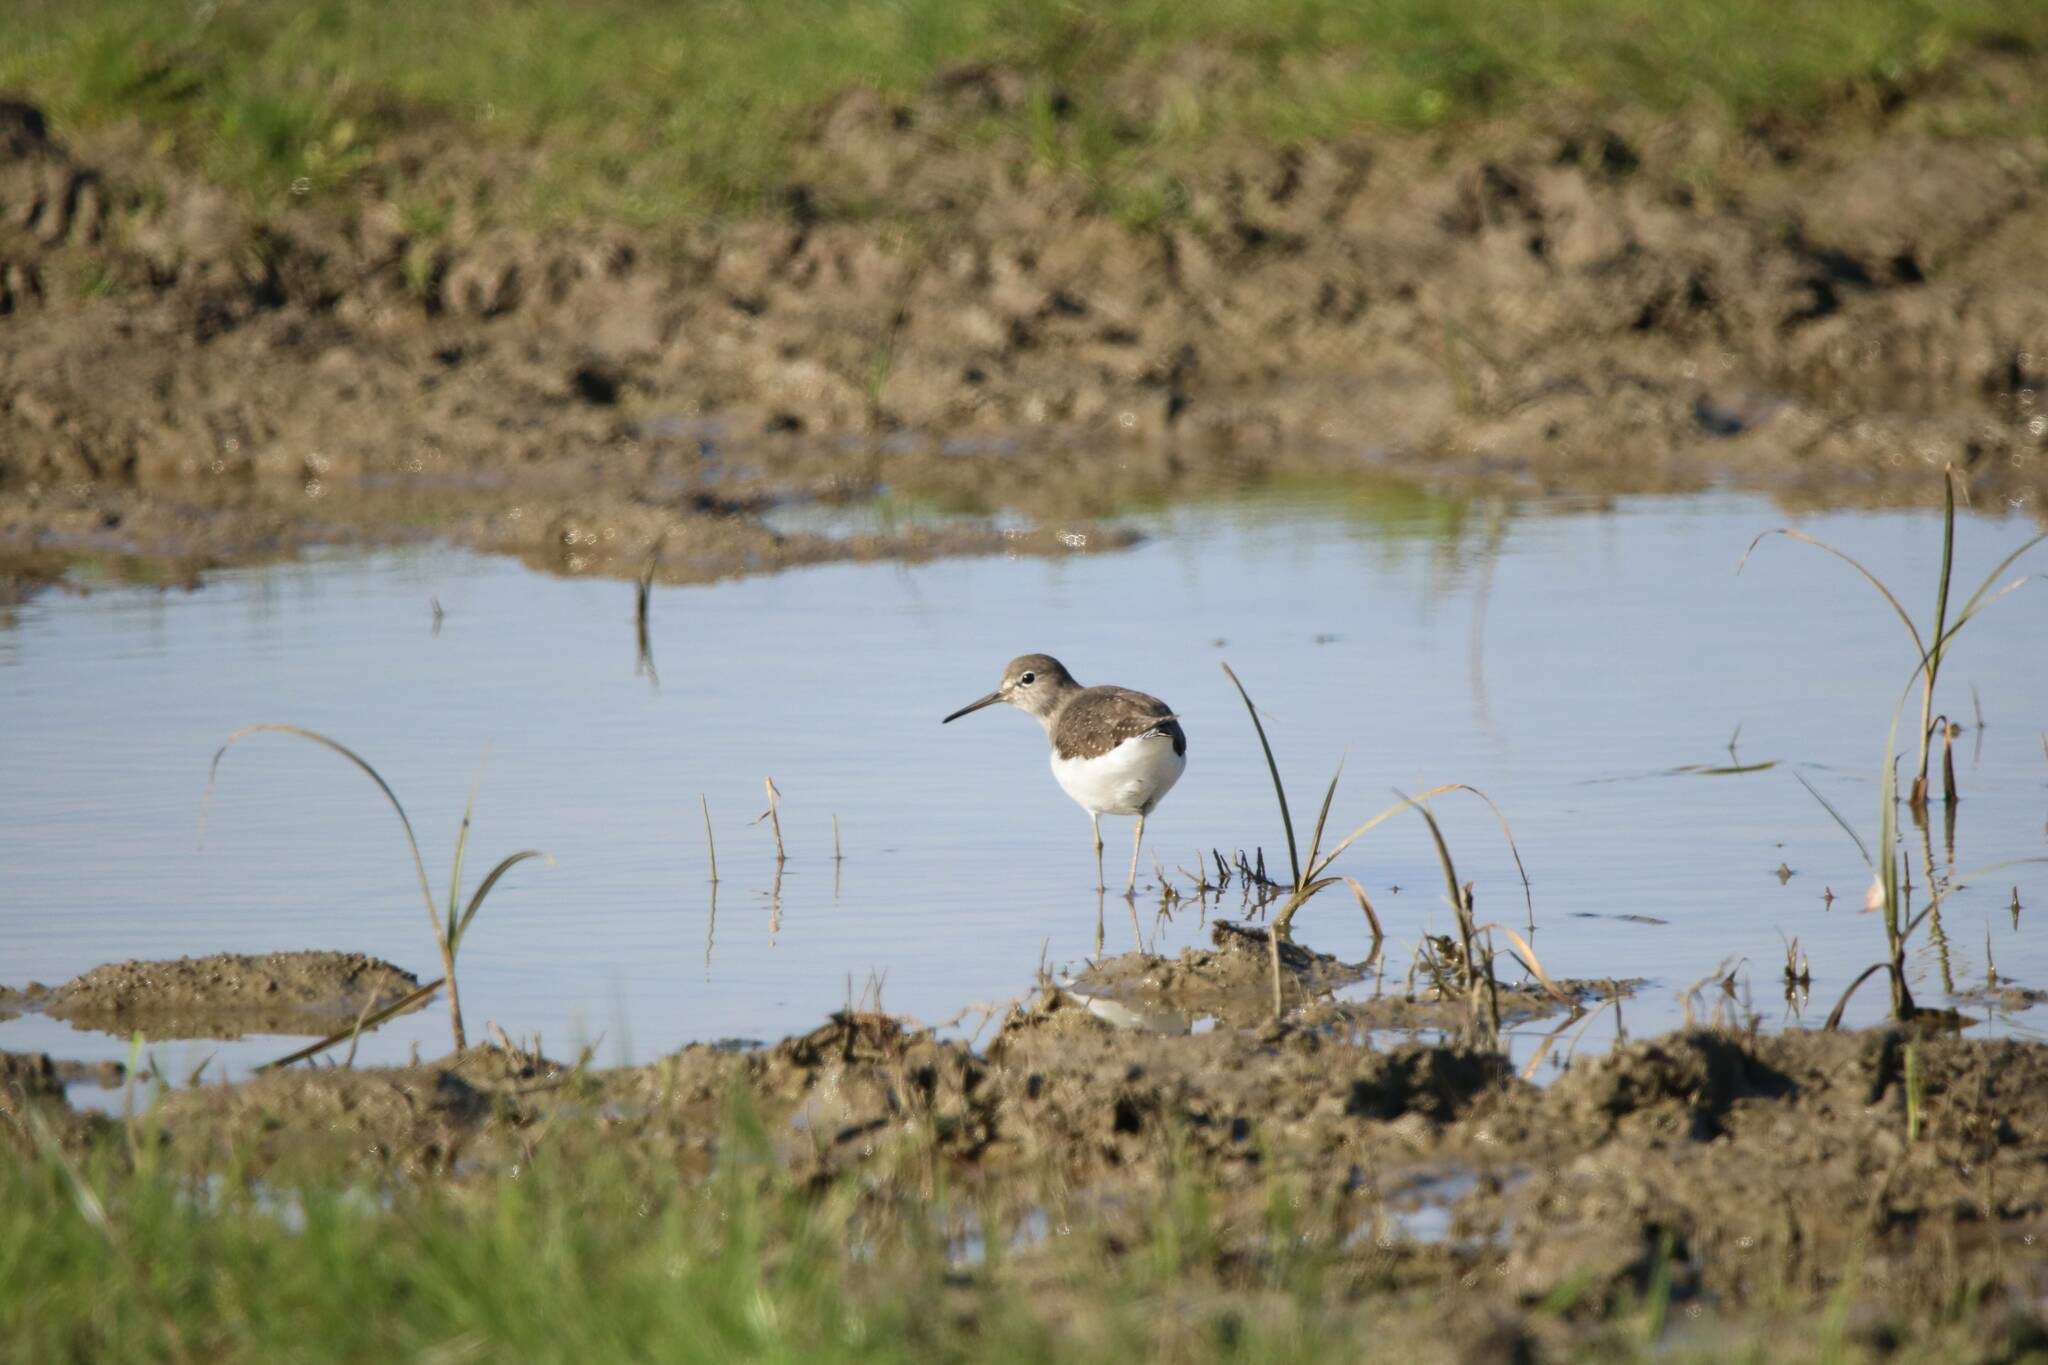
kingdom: Animalia
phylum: Chordata
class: Aves
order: Charadriiformes
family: Scolopacidae
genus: Tringa
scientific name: Tringa ochropus
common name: Green sandpiper
